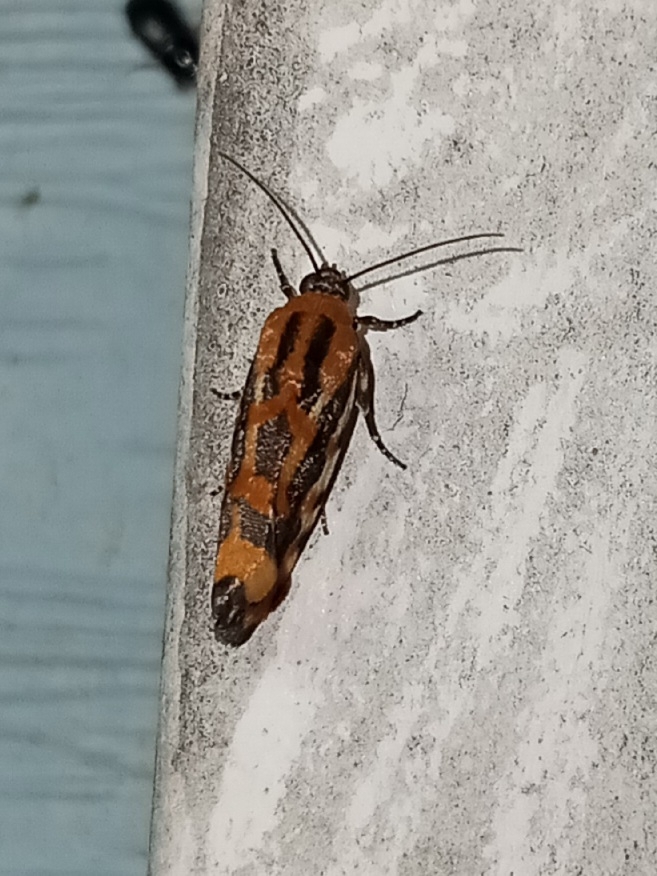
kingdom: Animalia
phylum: Arthropoda
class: Insecta
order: Lepidoptera
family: Noctuidae
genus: Acontia
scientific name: Acontia leo
